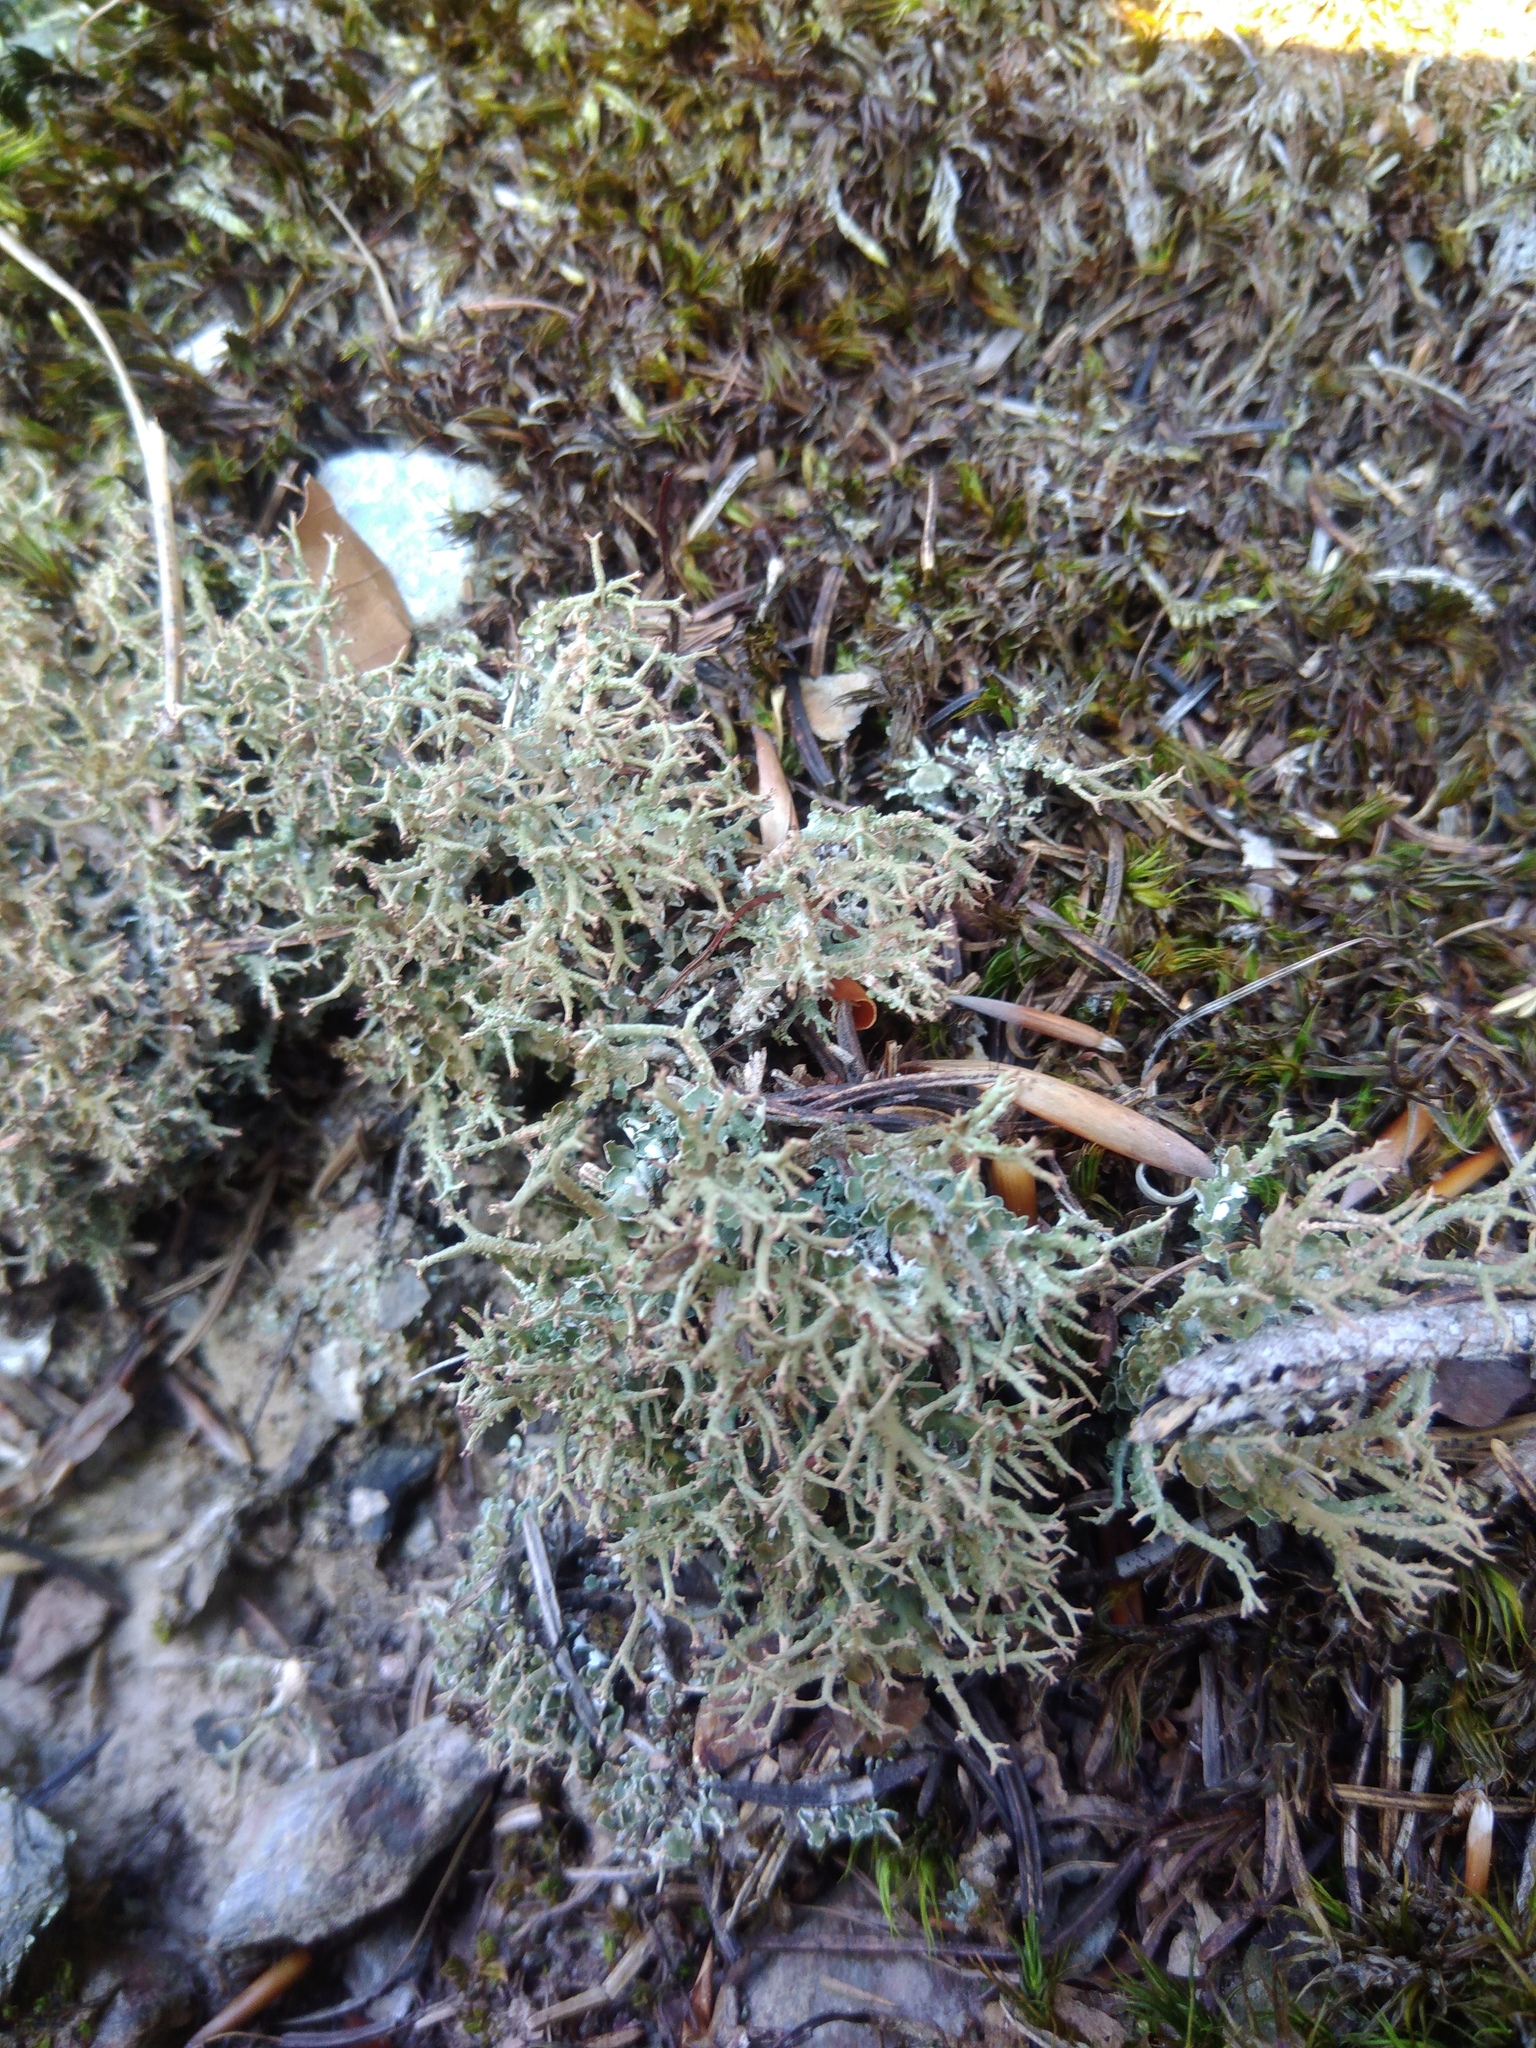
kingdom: Fungi
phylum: Ascomycota
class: Lecanoromycetes
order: Lecanorales
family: Cladoniaceae
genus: Cladonia
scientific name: Cladonia furcata
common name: Many-forked cladonia
